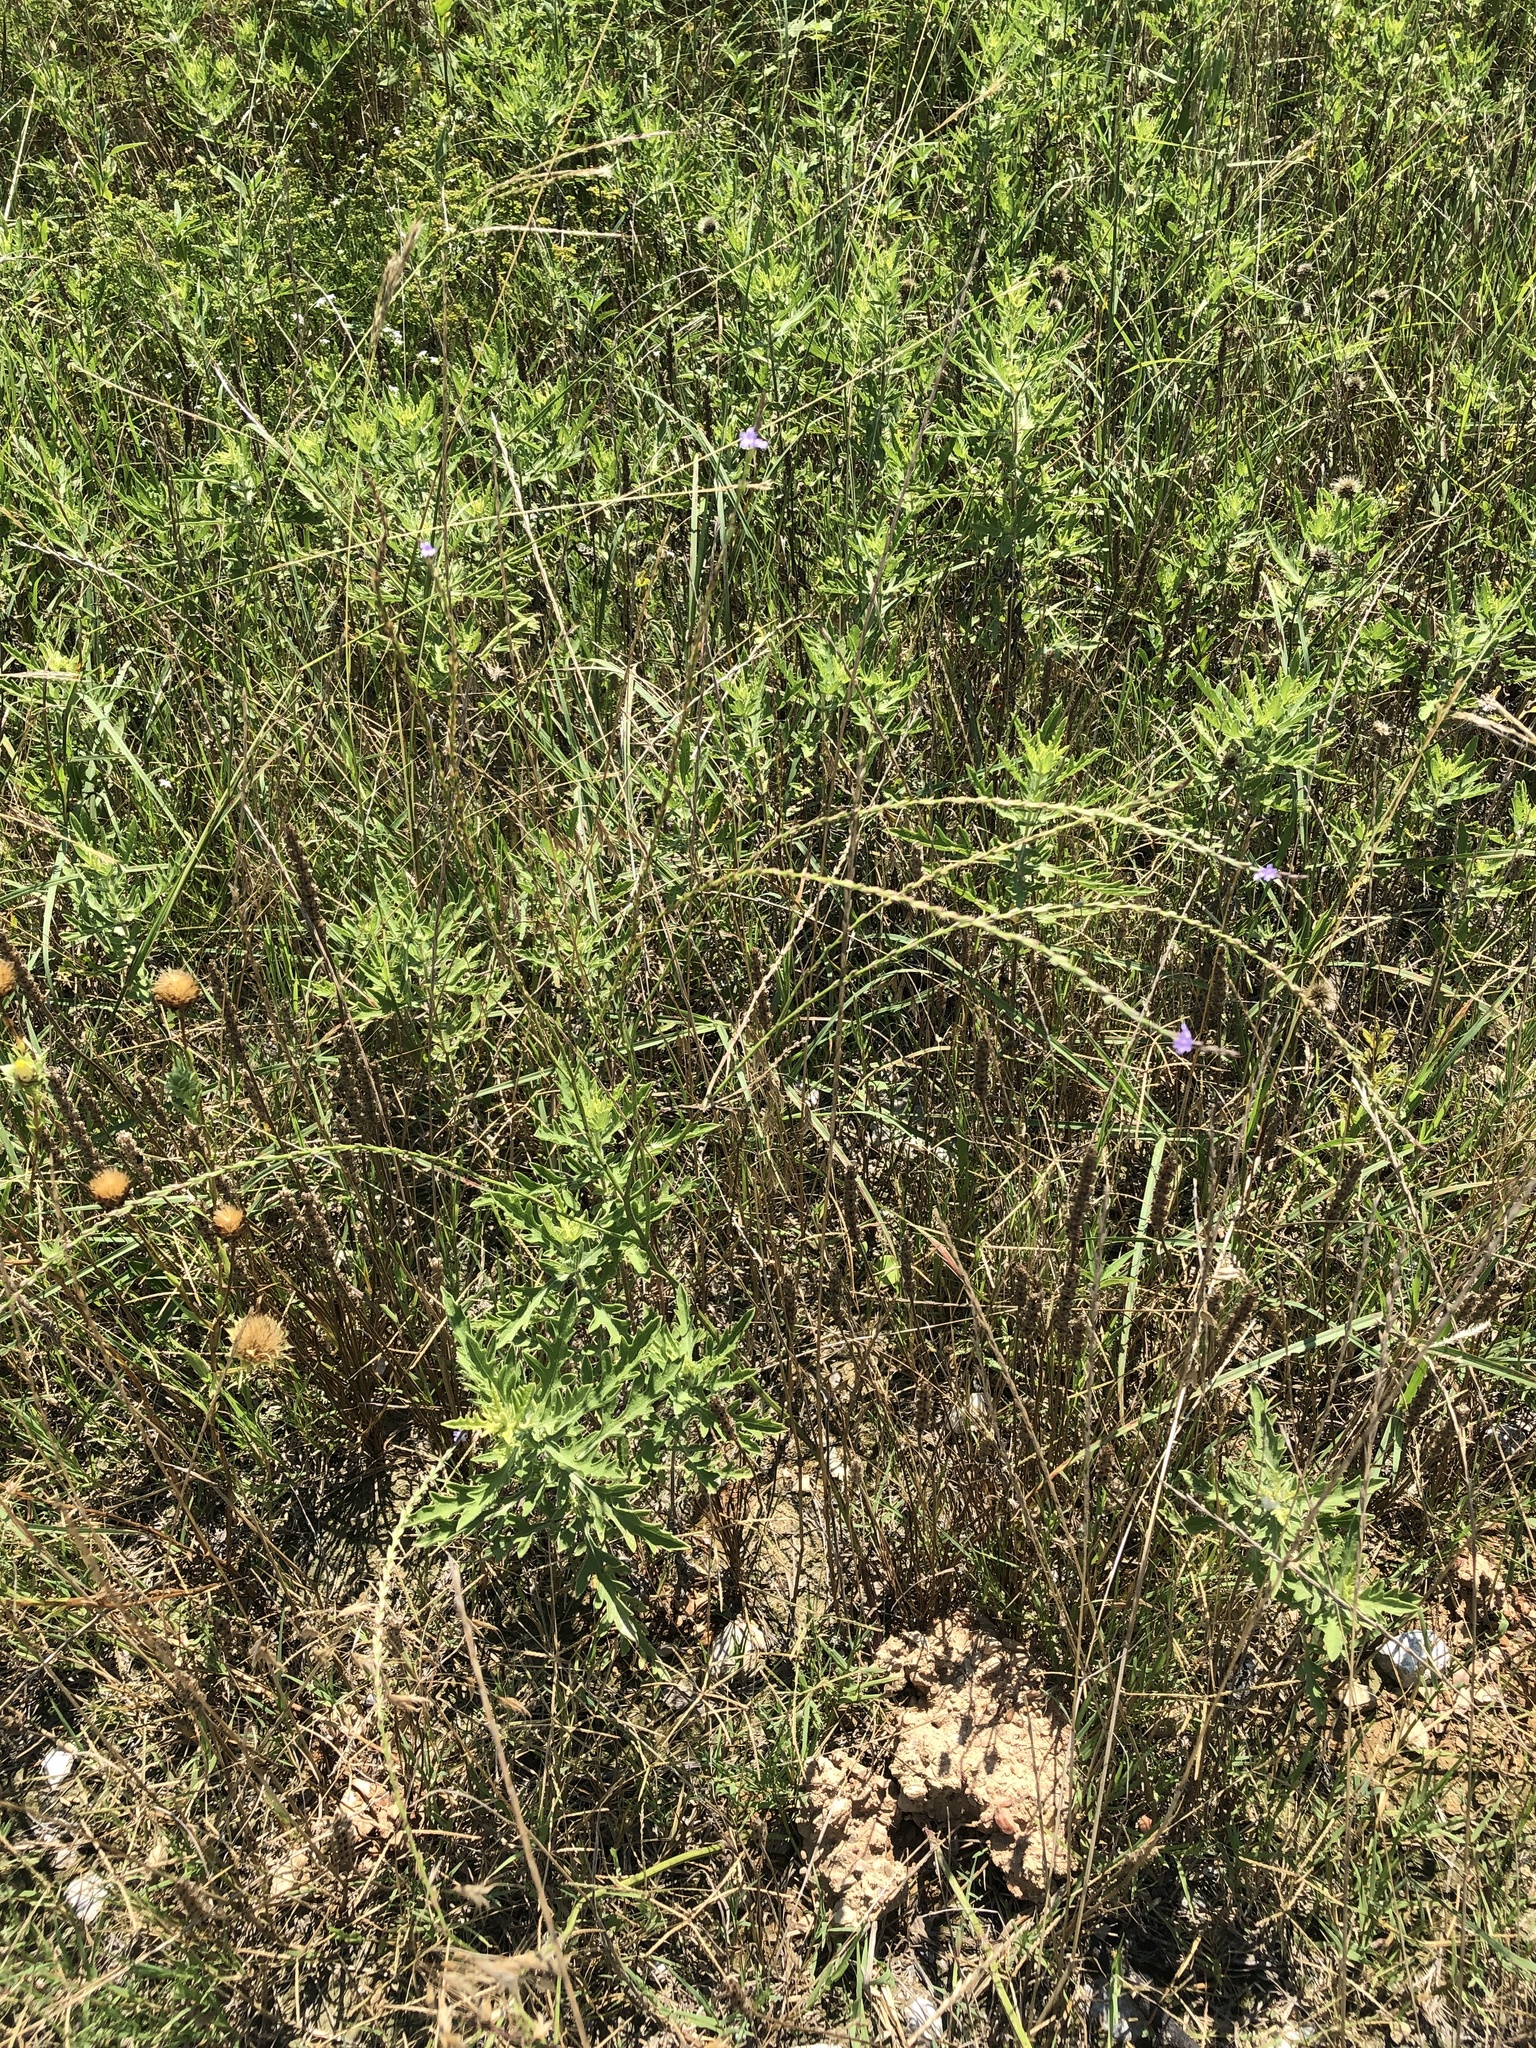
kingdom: Plantae
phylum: Tracheophyta
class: Magnoliopsida
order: Lamiales
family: Verbenaceae
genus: Verbena
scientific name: Verbena halei
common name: Texas vervain
